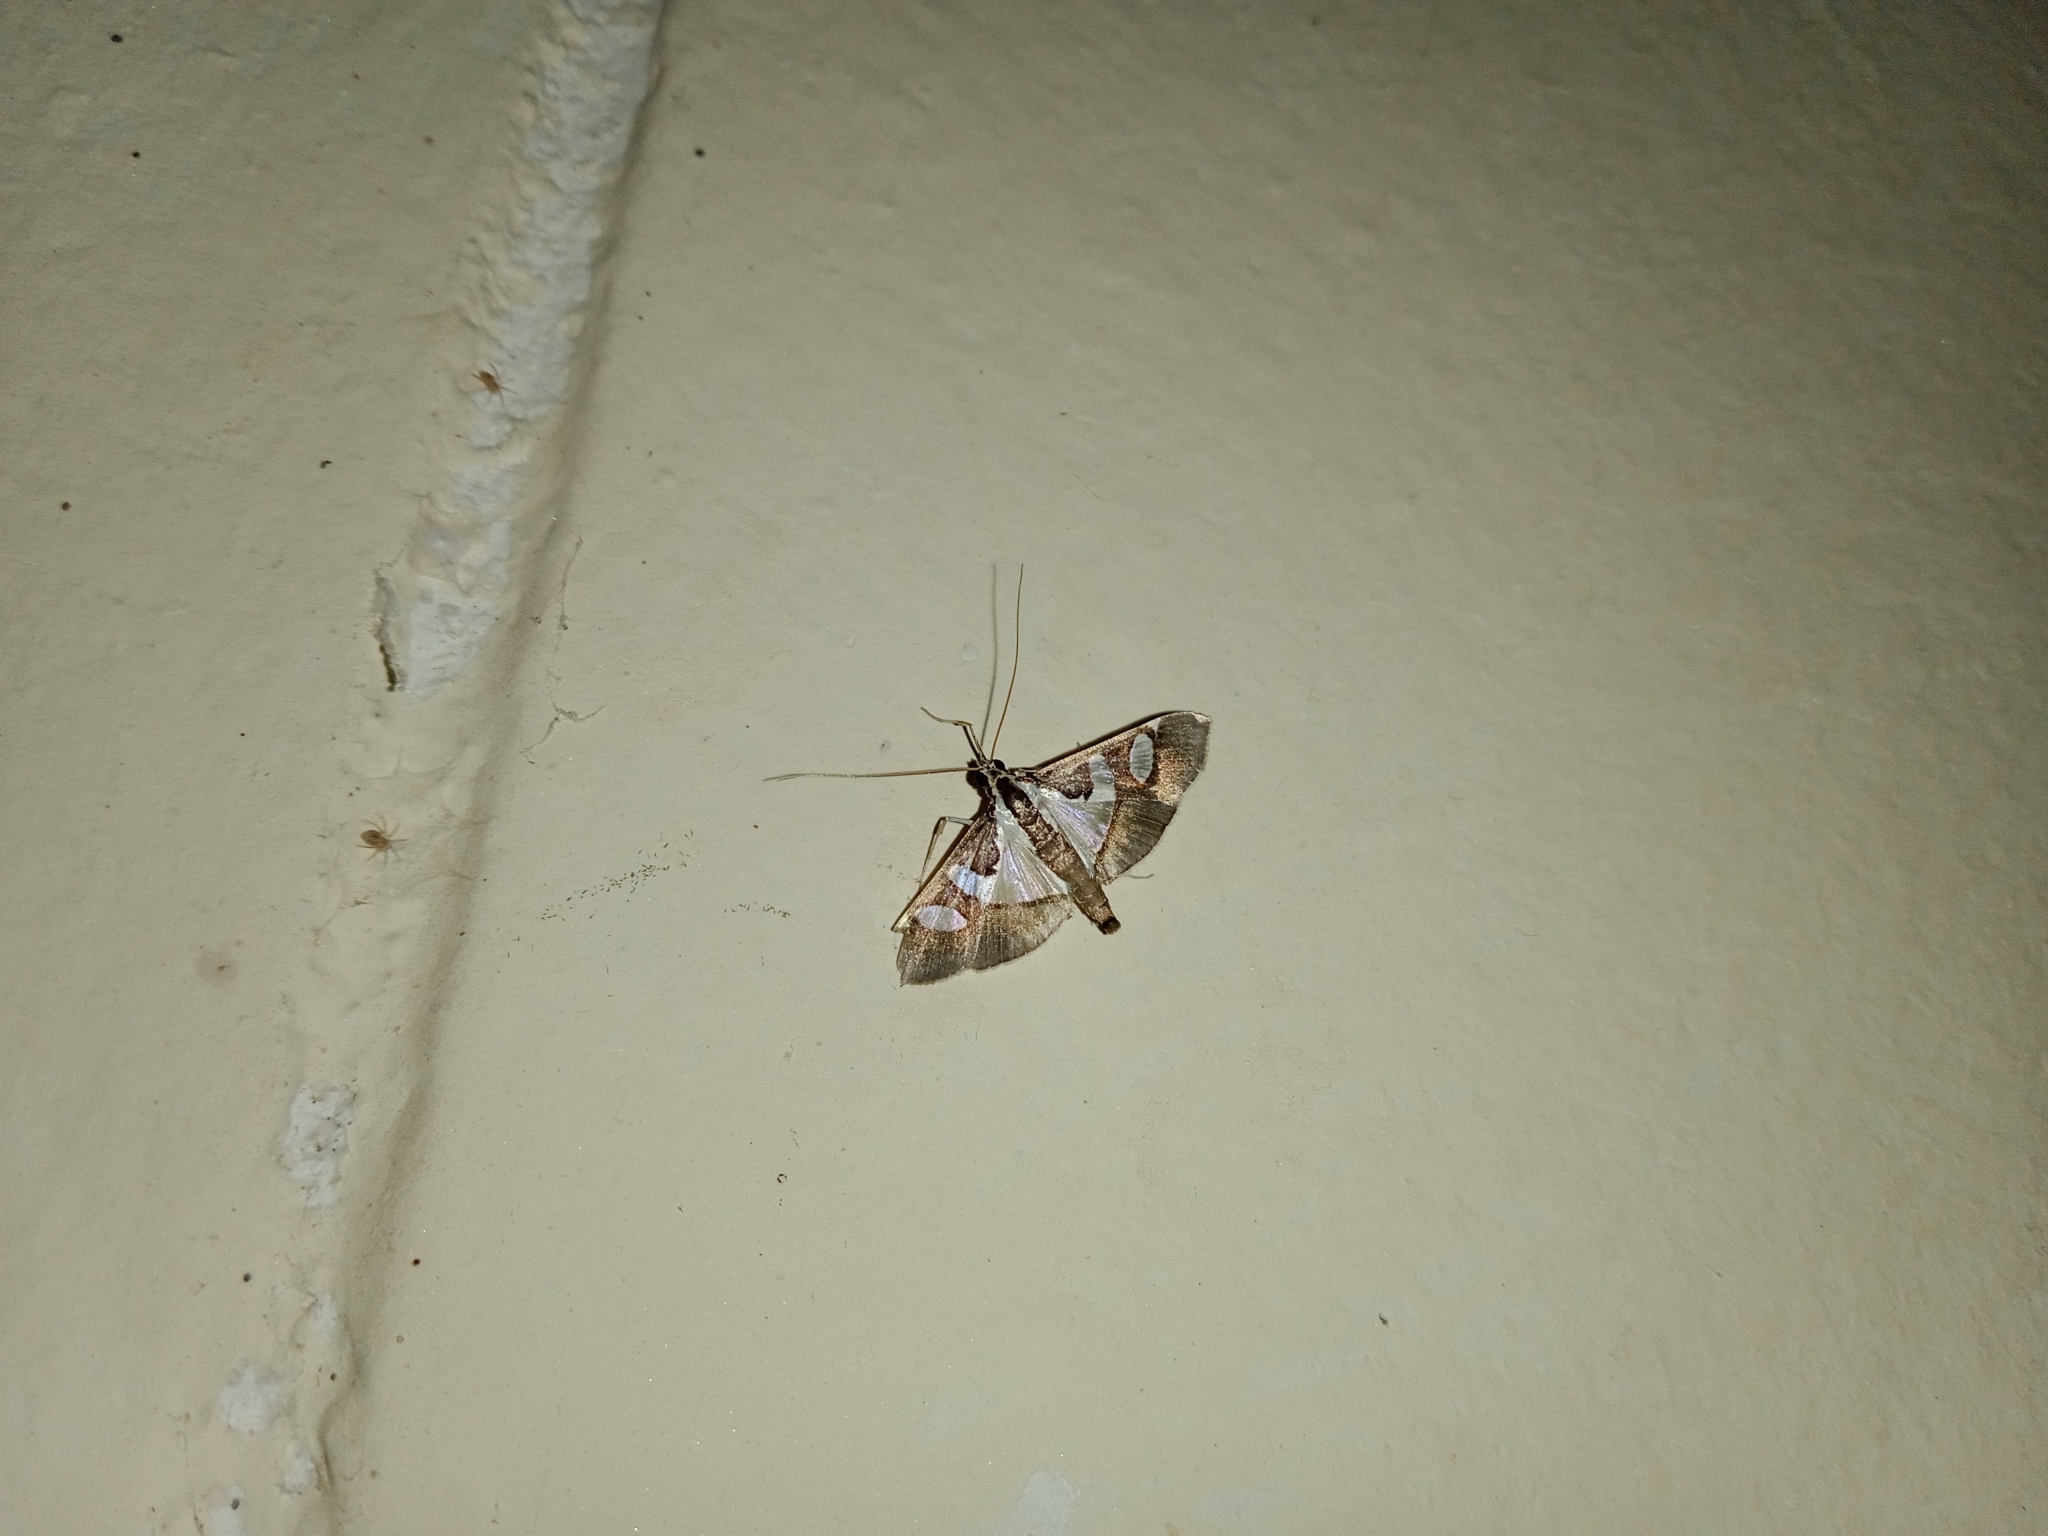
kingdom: Animalia
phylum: Arthropoda
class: Insecta
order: Lepidoptera
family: Crambidae
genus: Glyphodes
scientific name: Glyphodes bicolor
